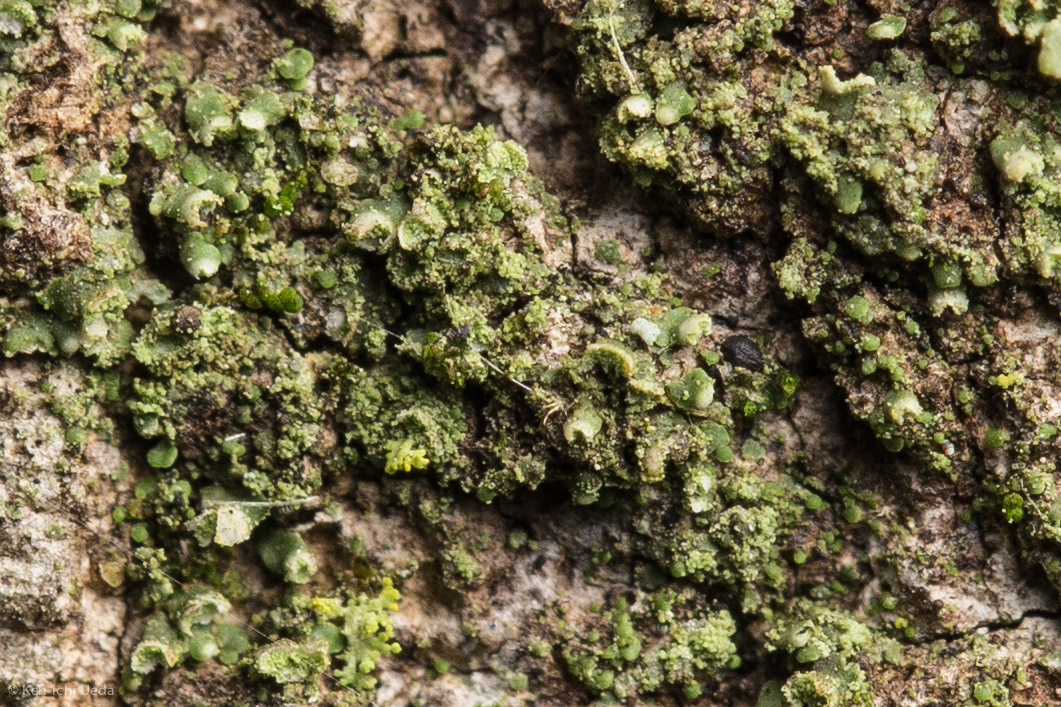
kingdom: Fungi
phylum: Ascomycota
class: Lecanoromycetes
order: Lecanorales
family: Ramalinaceae
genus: Waynea
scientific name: Waynea californica
